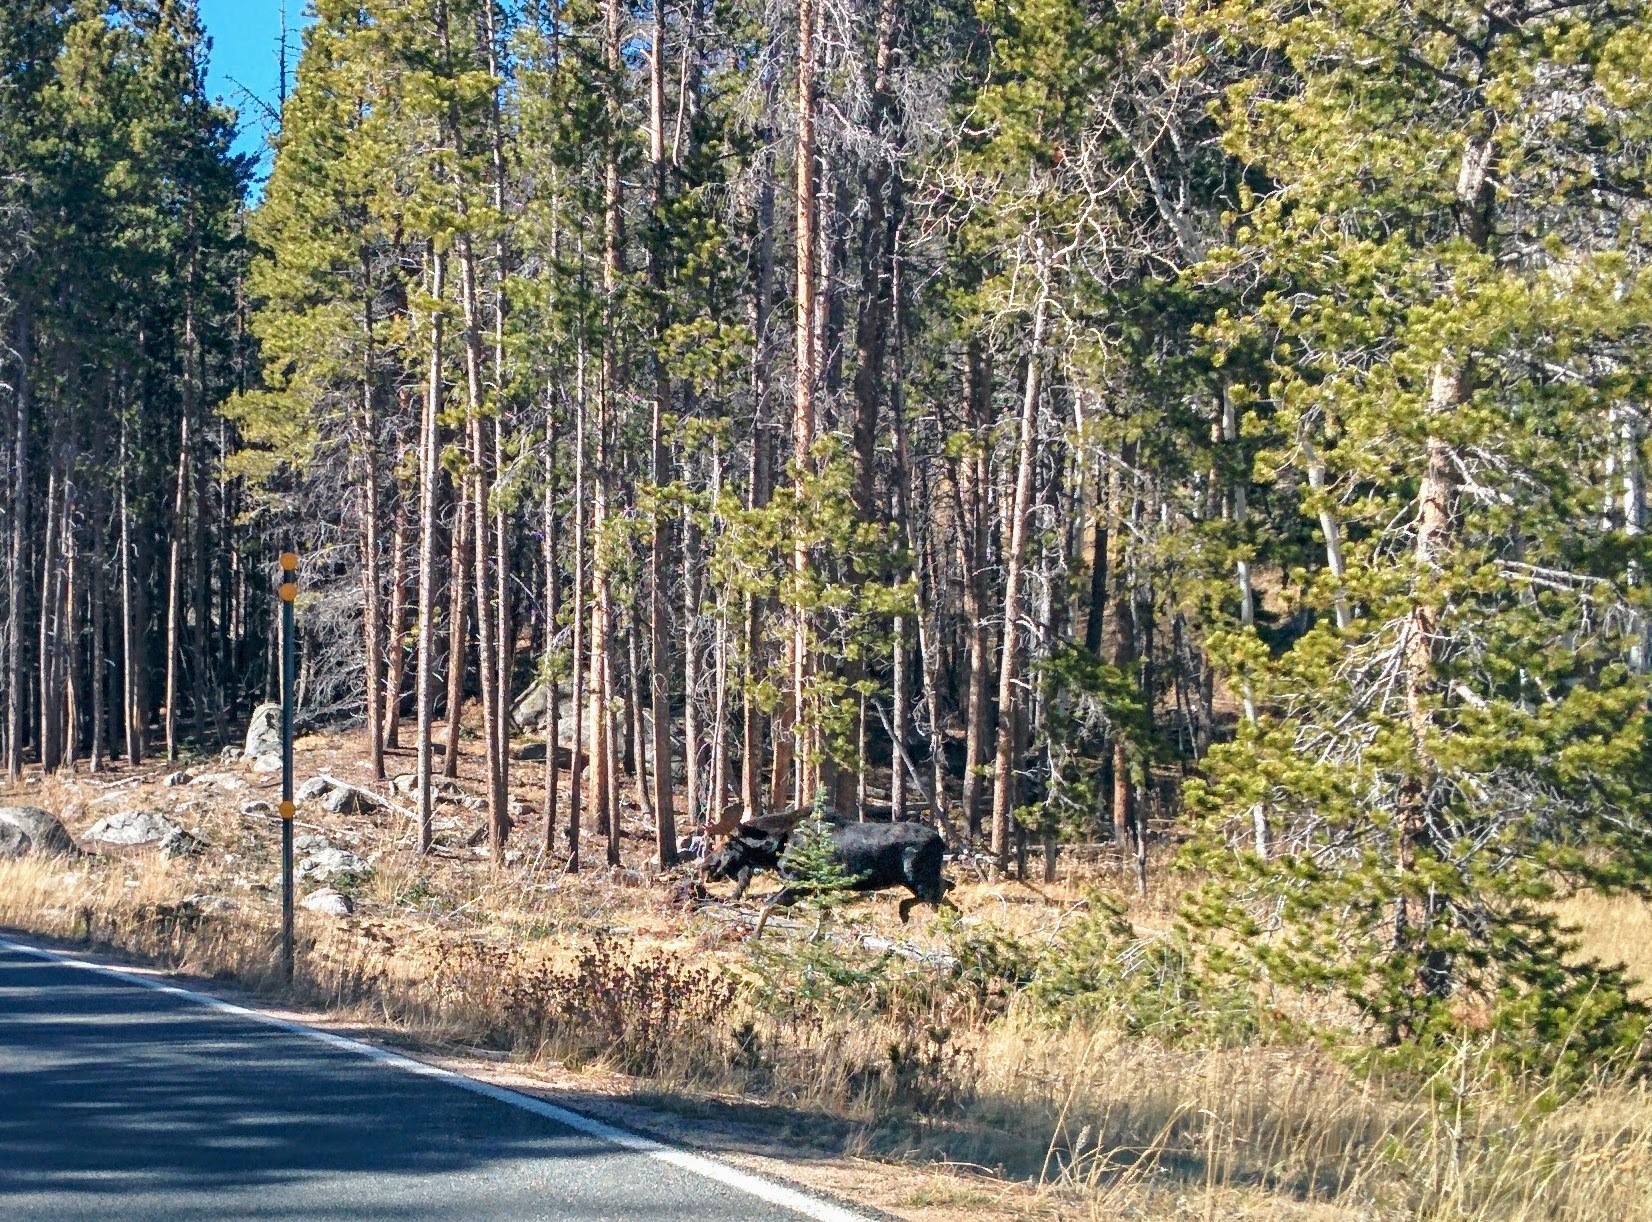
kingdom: Animalia
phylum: Chordata
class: Mammalia
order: Artiodactyla
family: Cervidae
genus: Alces
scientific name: Alces alces
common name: Moose
